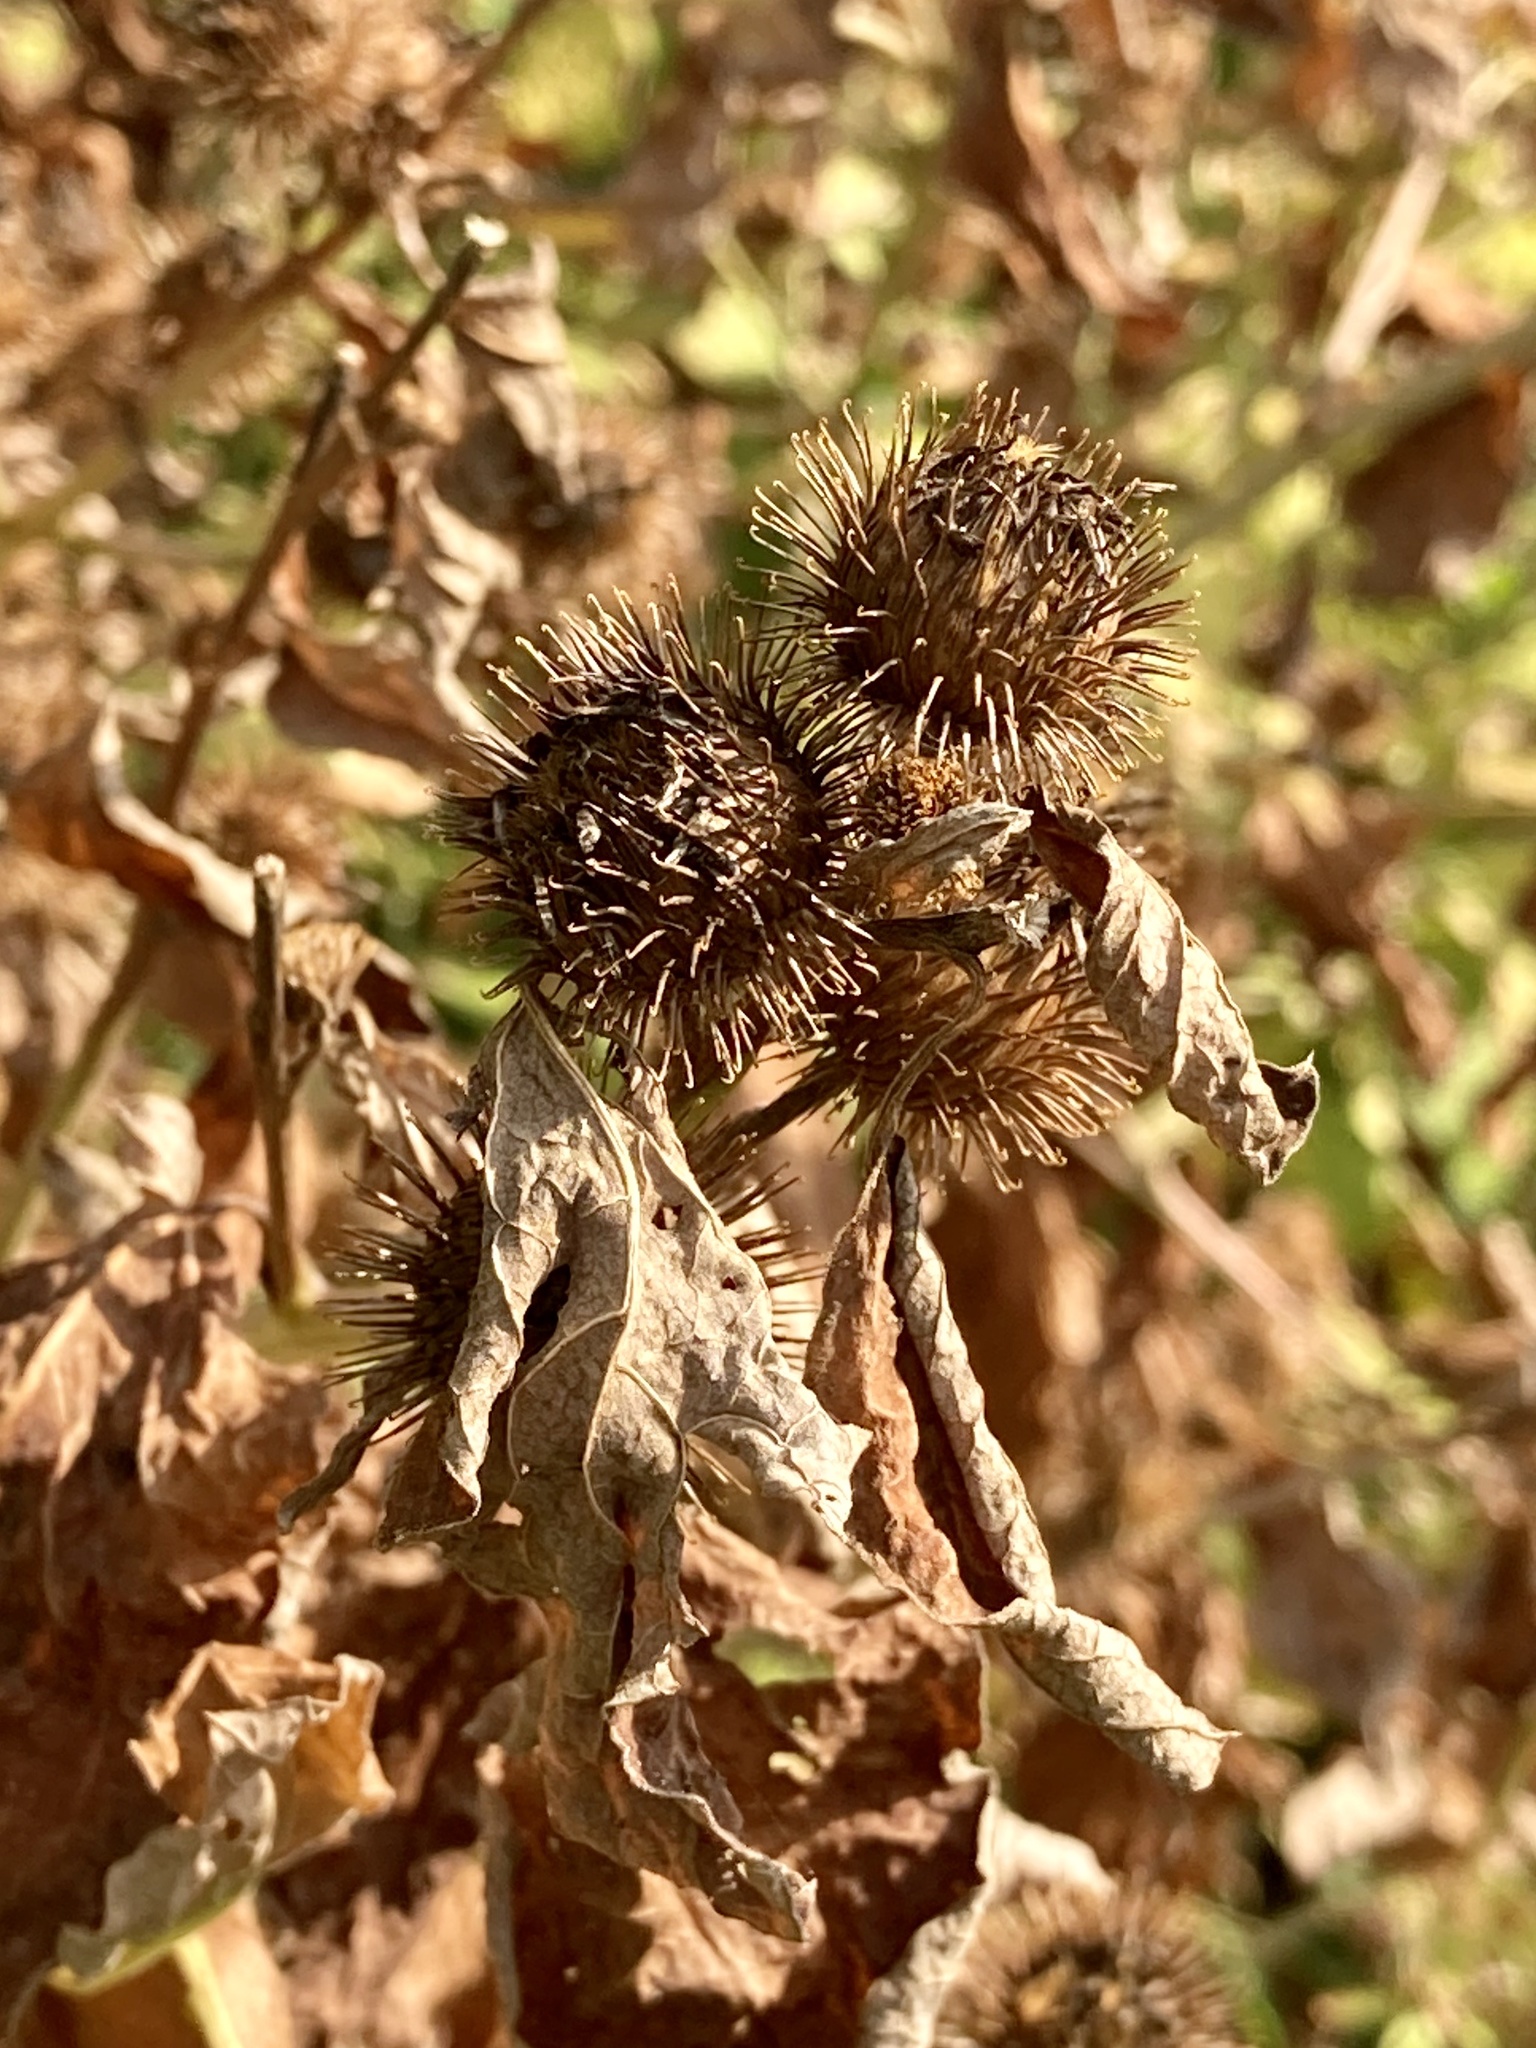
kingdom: Plantae
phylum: Tracheophyta
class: Magnoliopsida
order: Asterales
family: Asteraceae
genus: Arctium
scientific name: Arctium minus
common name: Lesser burdock
